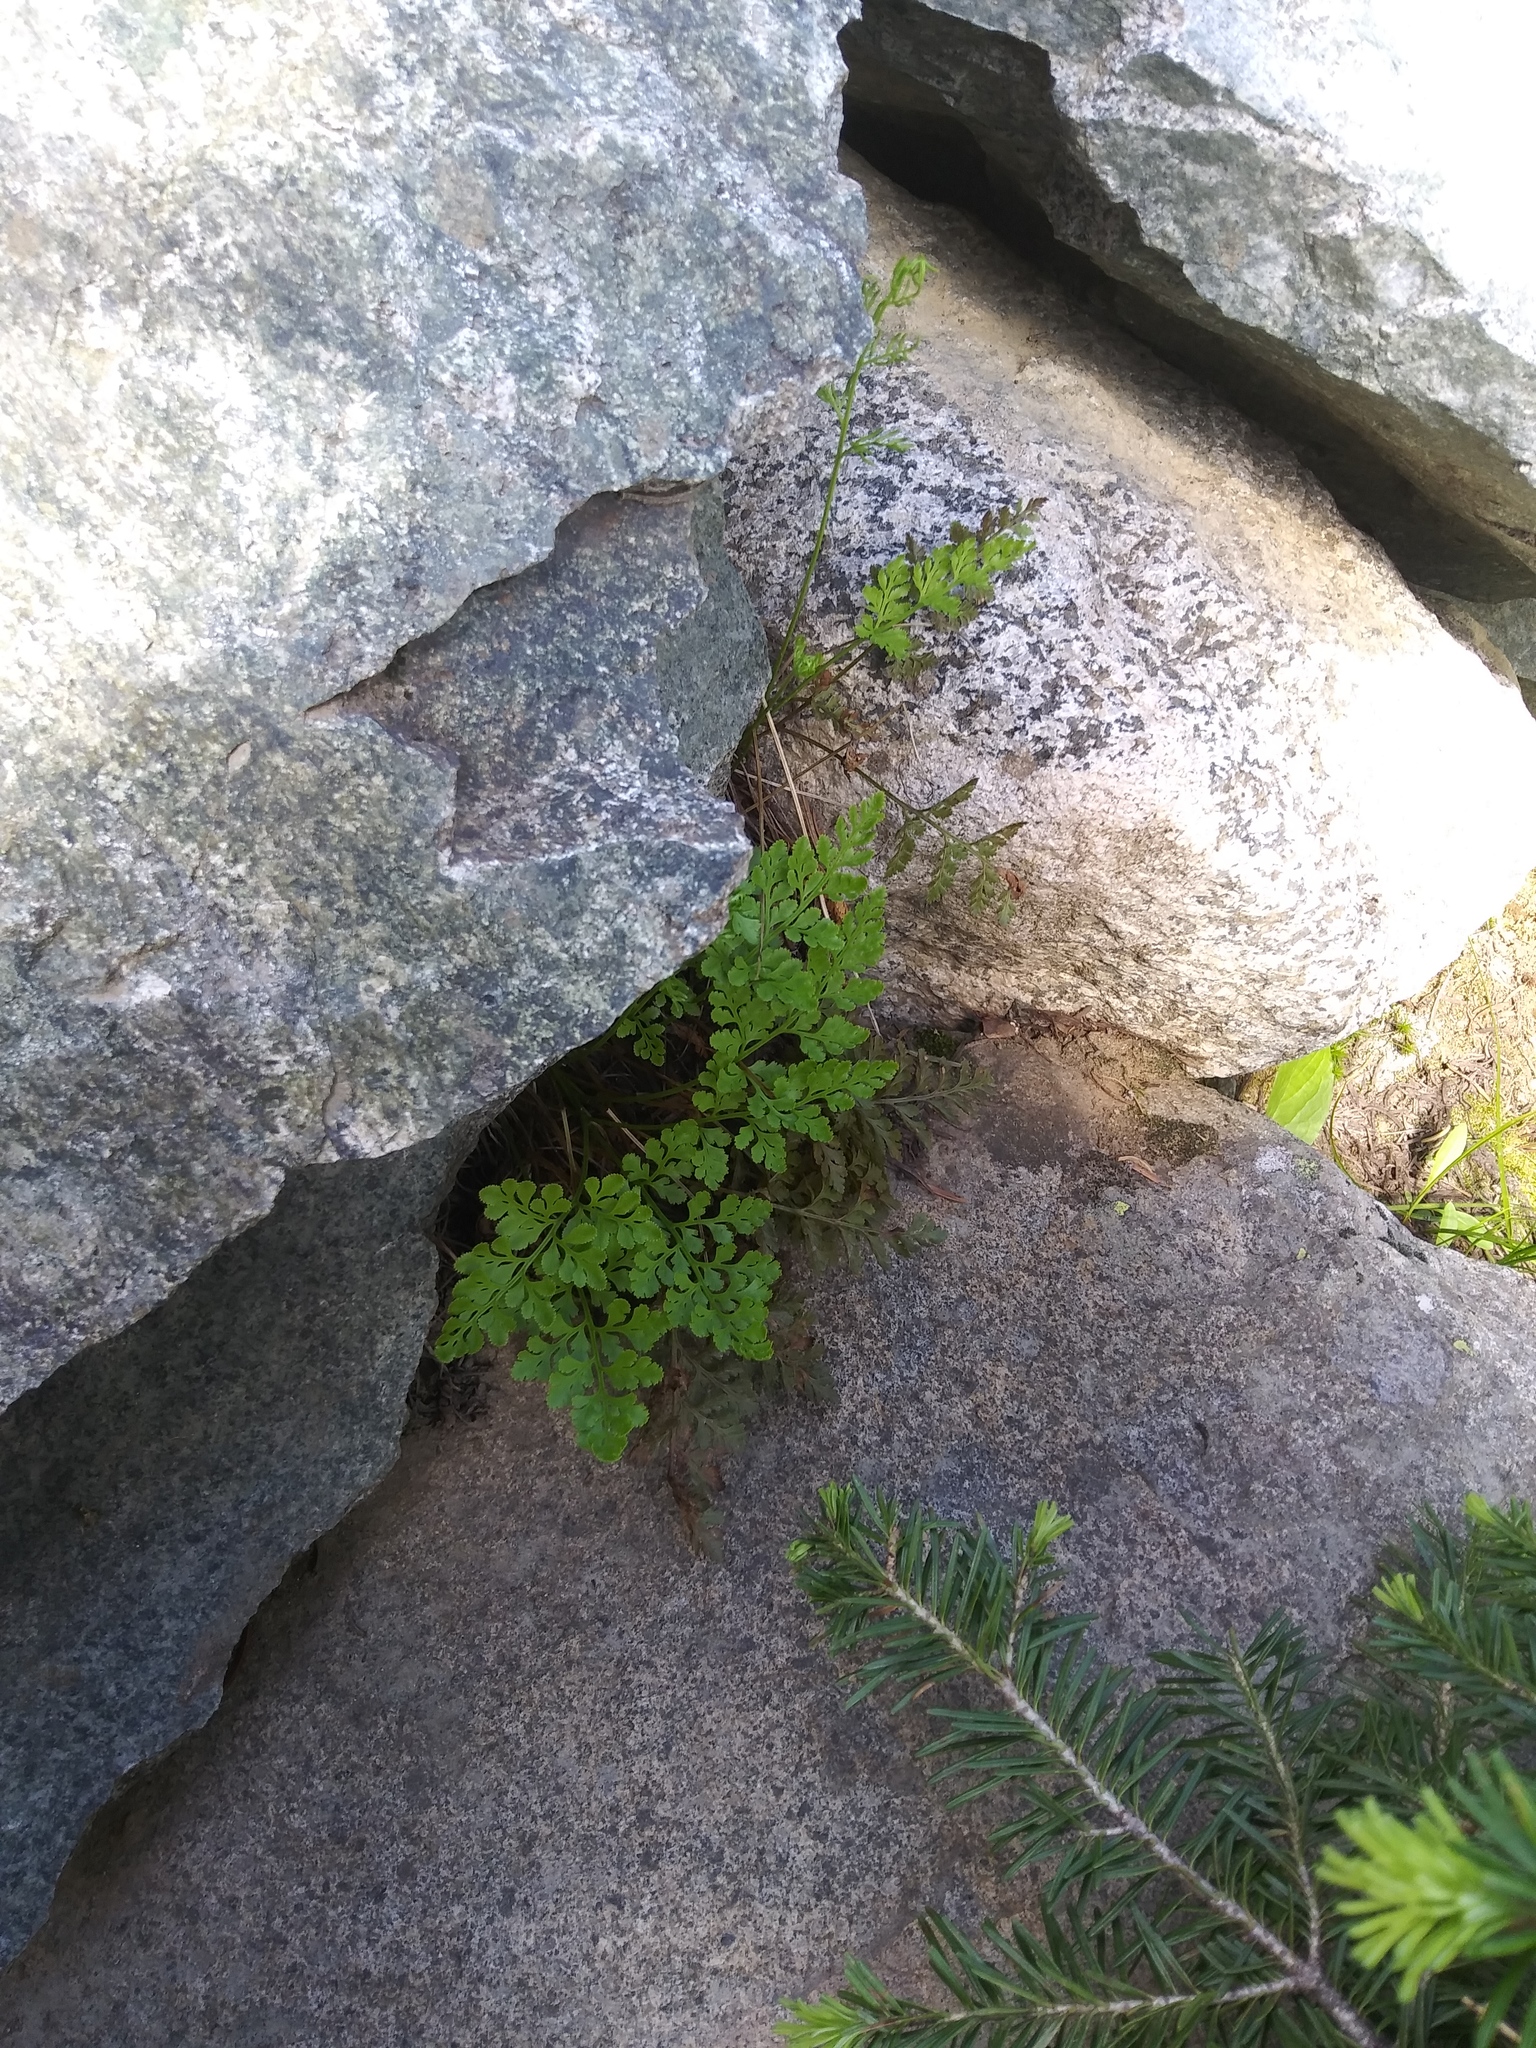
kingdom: Plantae
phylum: Tracheophyta
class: Polypodiopsida
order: Polypodiales
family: Pteridaceae
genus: Cryptogramma
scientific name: Cryptogramma acrostichoides
